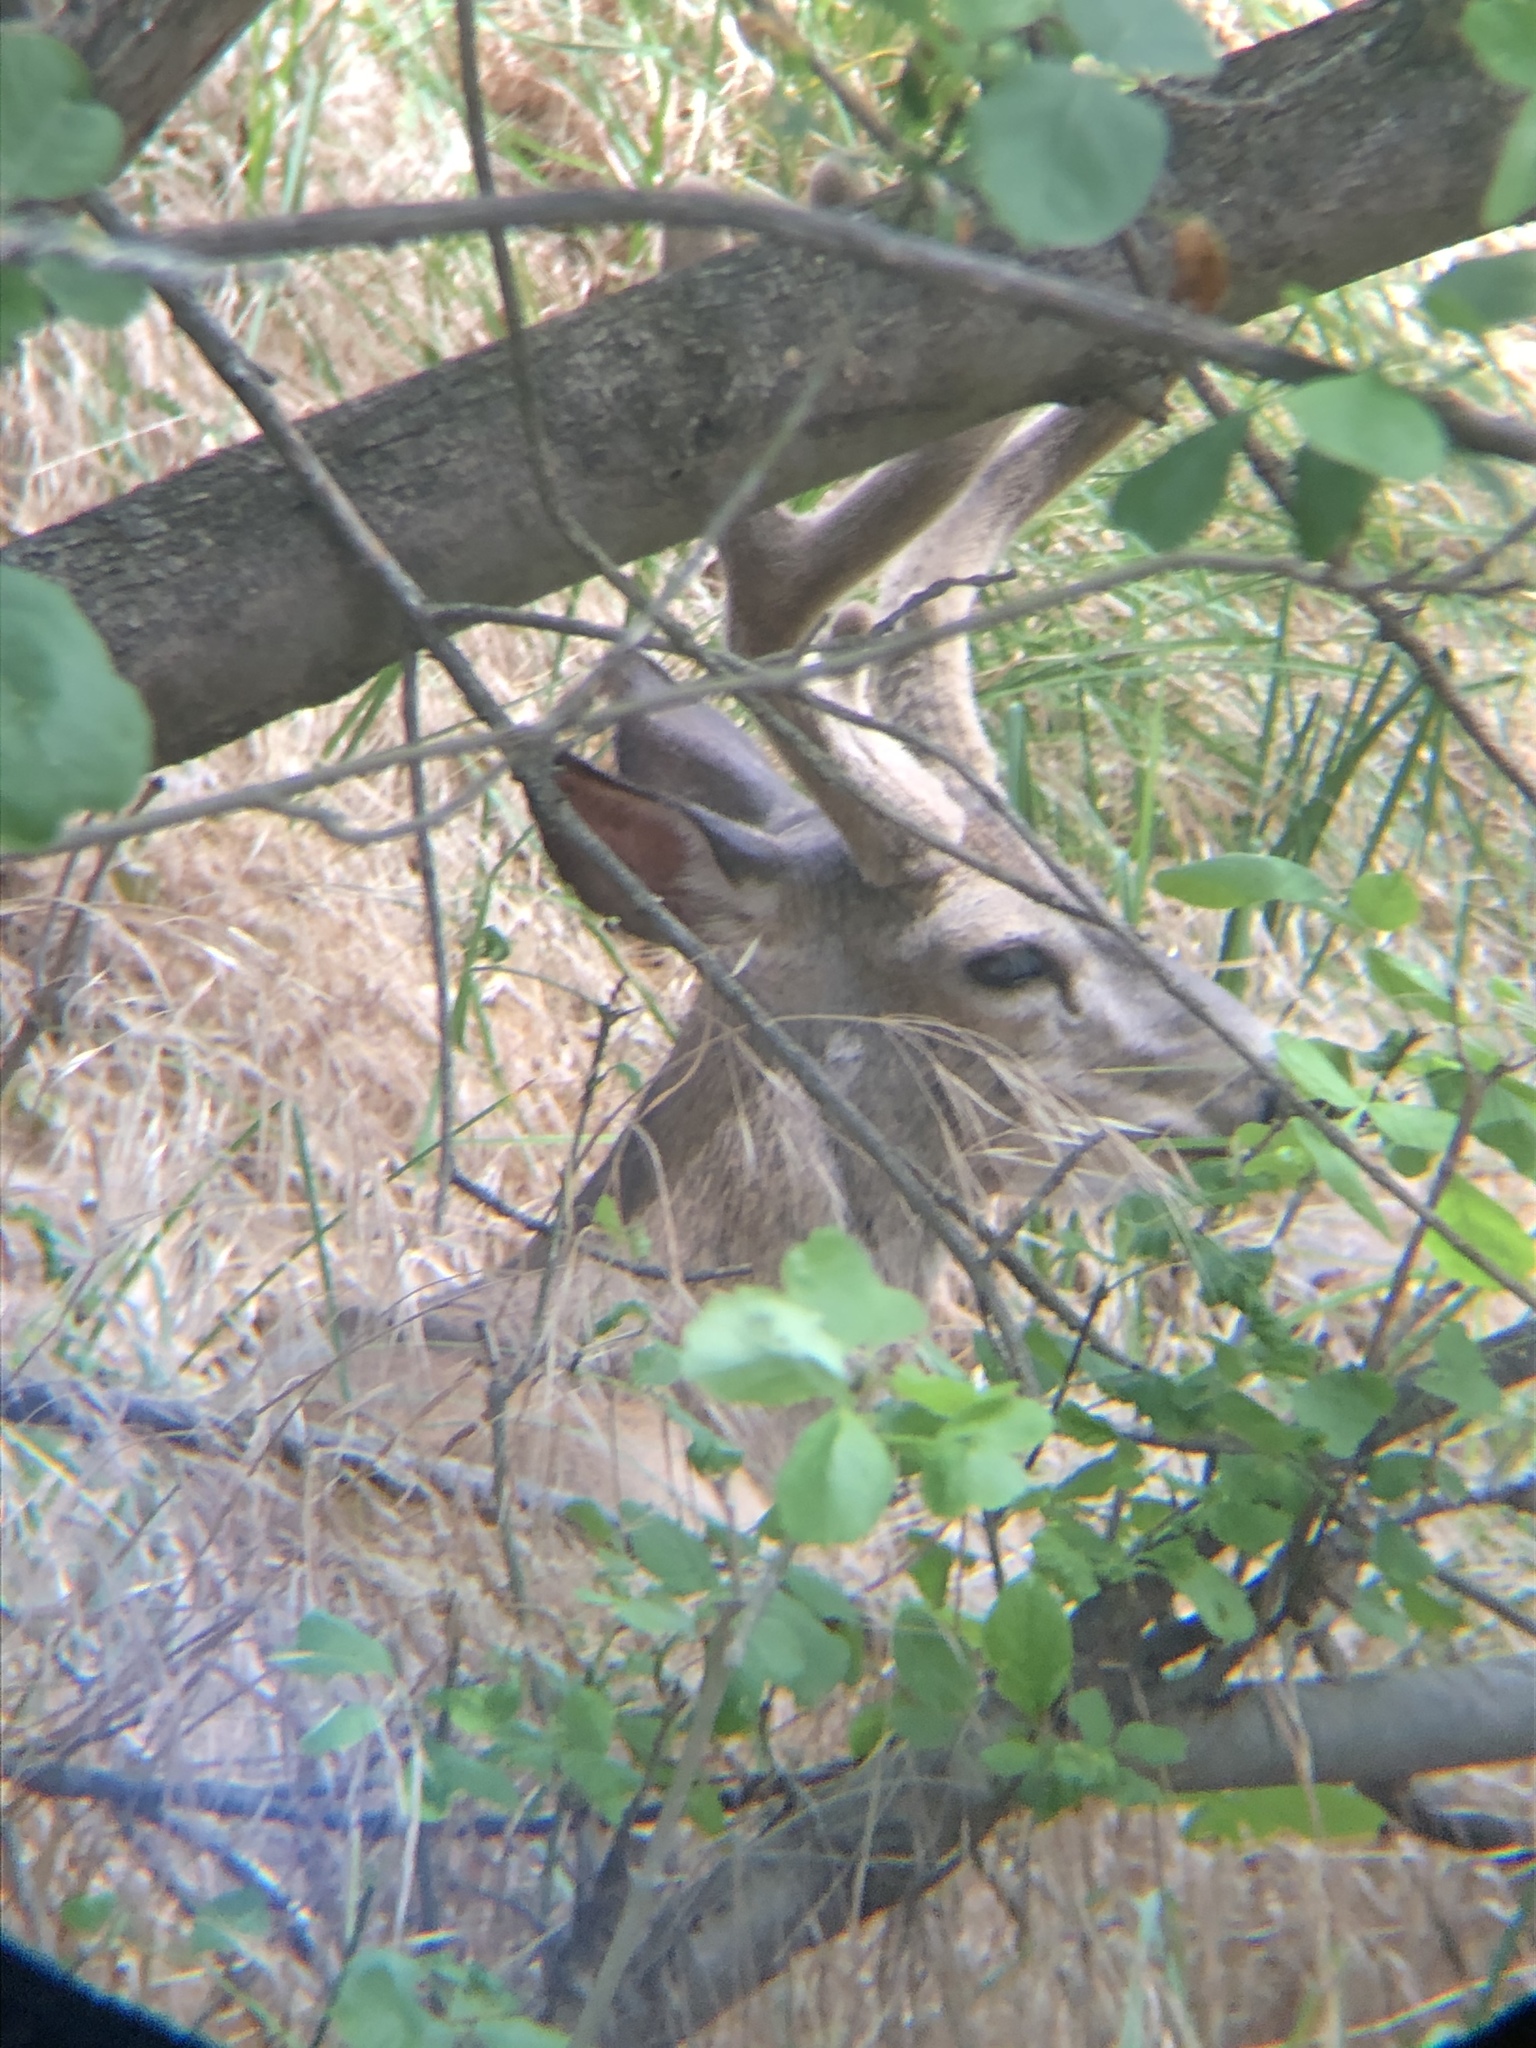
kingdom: Animalia
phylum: Chordata
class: Mammalia
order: Artiodactyla
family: Cervidae
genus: Odocoileus
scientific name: Odocoileus hemionus
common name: Mule deer
